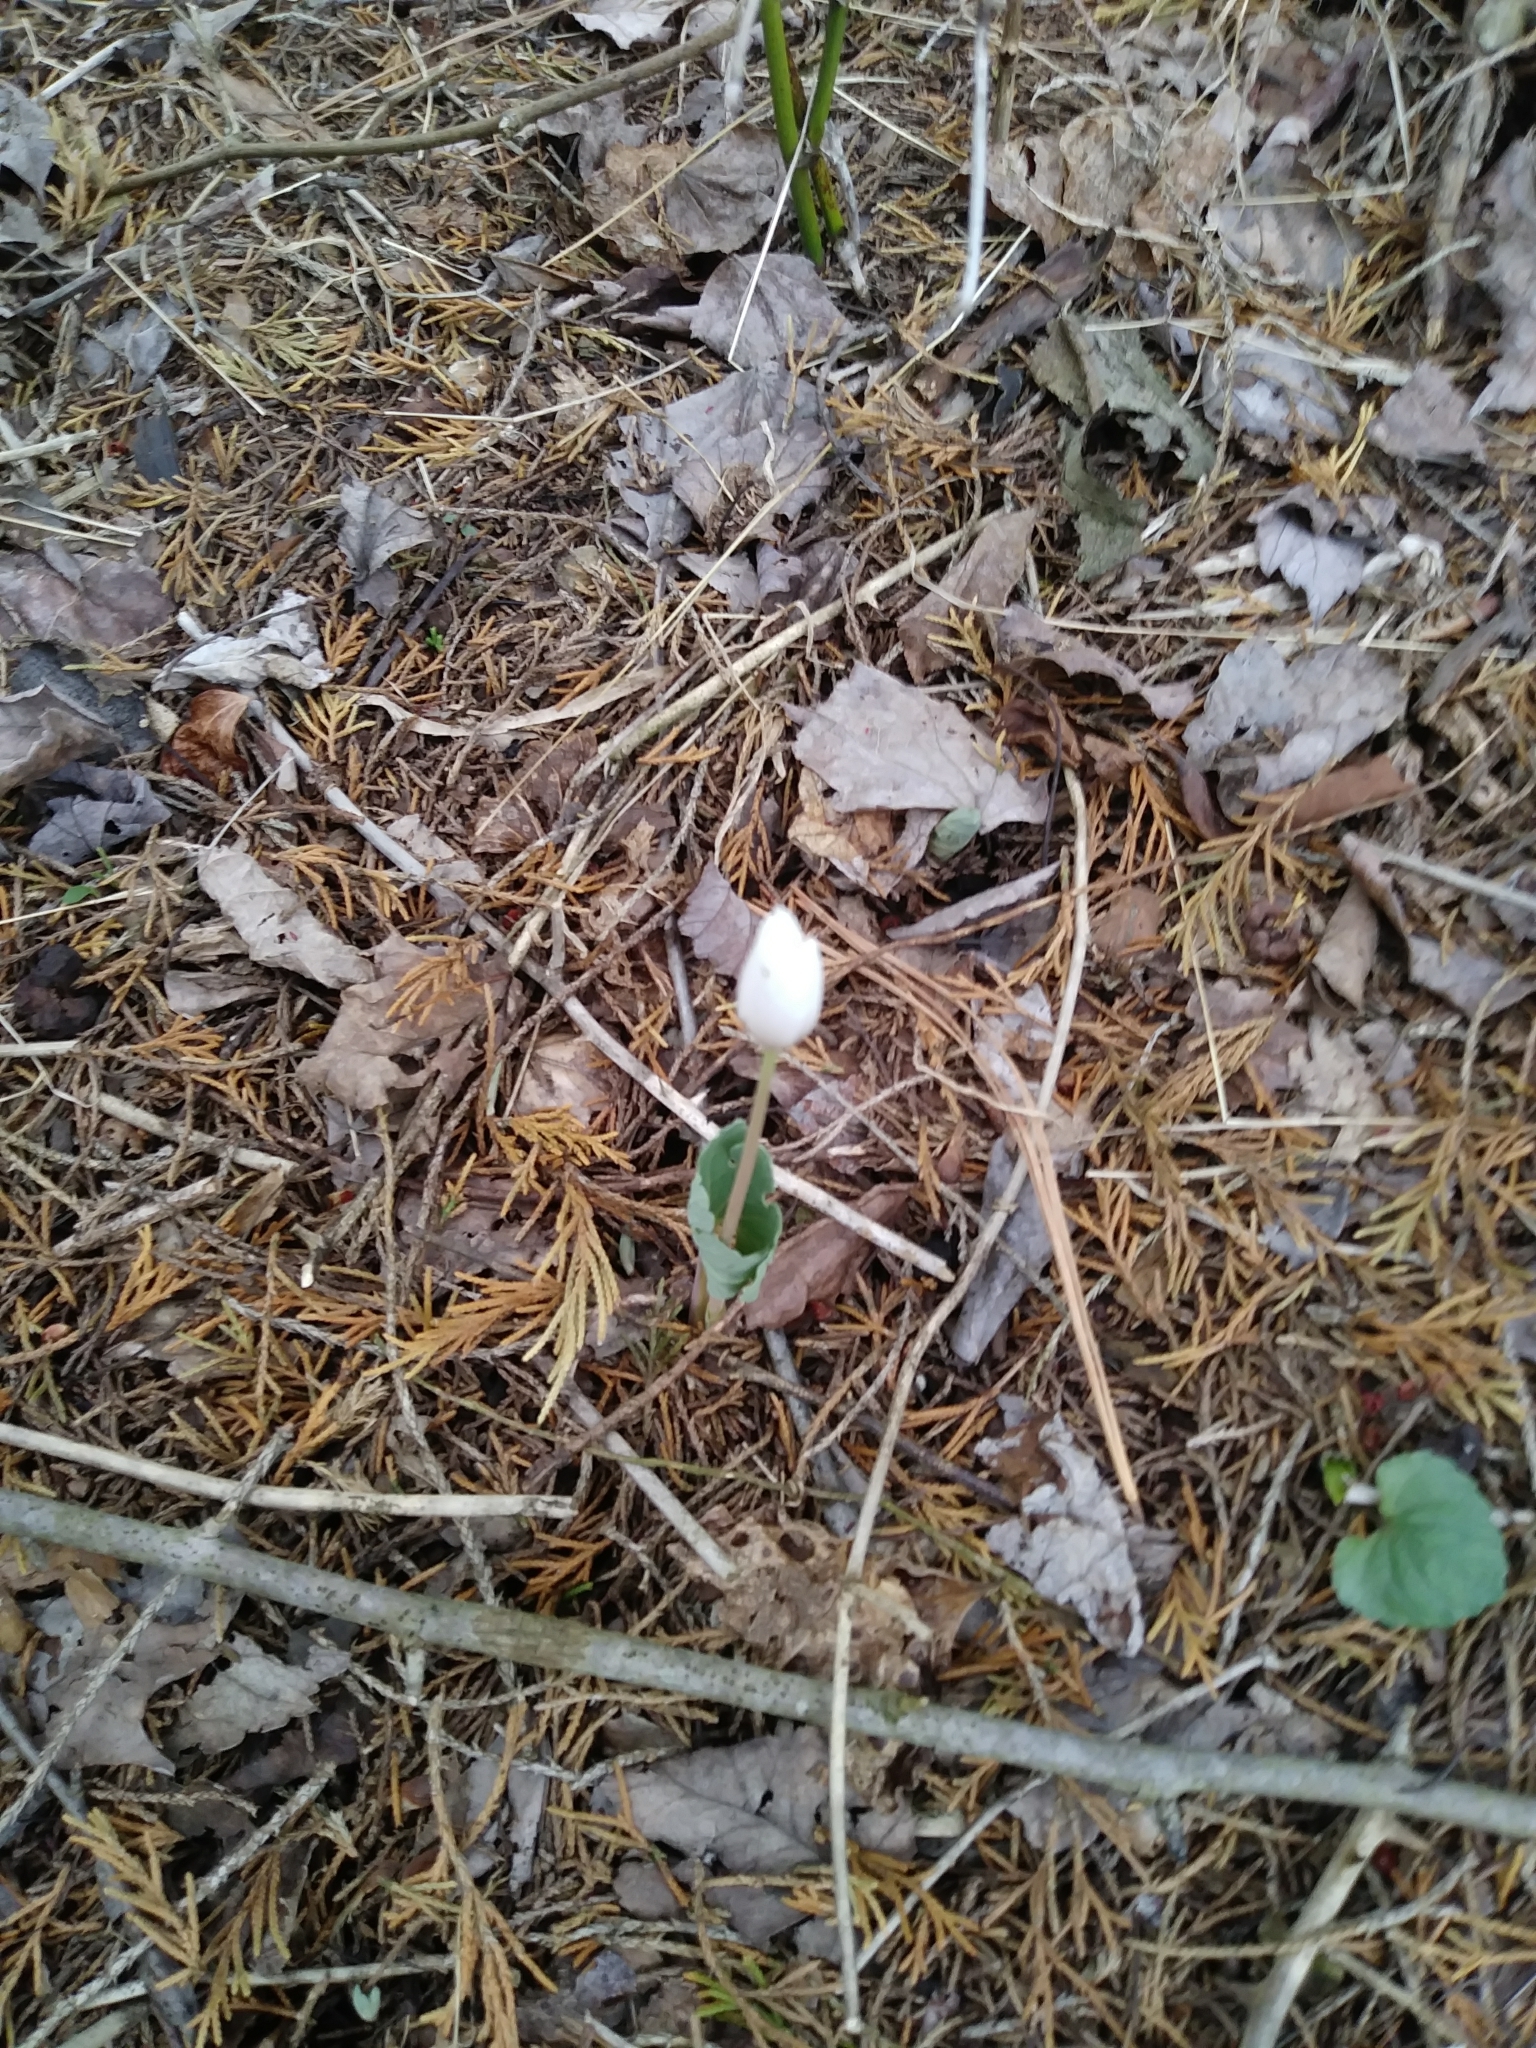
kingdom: Plantae
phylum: Tracheophyta
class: Magnoliopsida
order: Ranunculales
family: Papaveraceae
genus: Sanguinaria
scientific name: Sanguinaria canadensis
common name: Bloodroot
